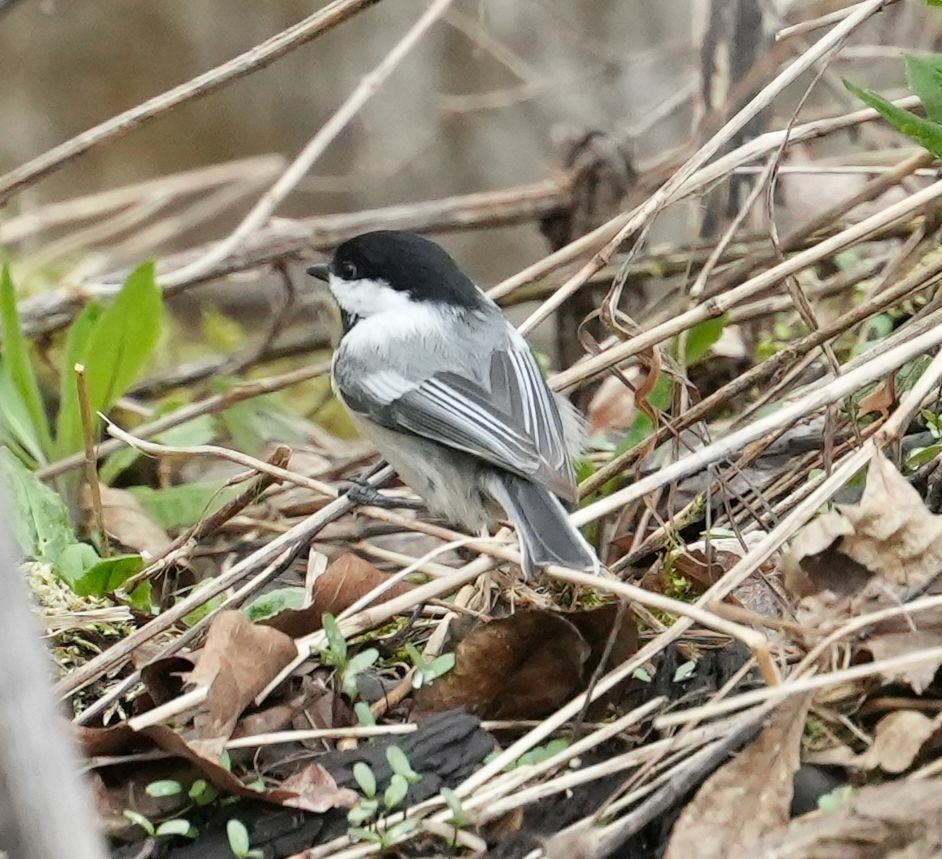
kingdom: Animalia
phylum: Chordata
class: Aves
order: Passeriformes
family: Paridae
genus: Poecile
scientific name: Poecile atricapillus
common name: Black-capped chickadee
